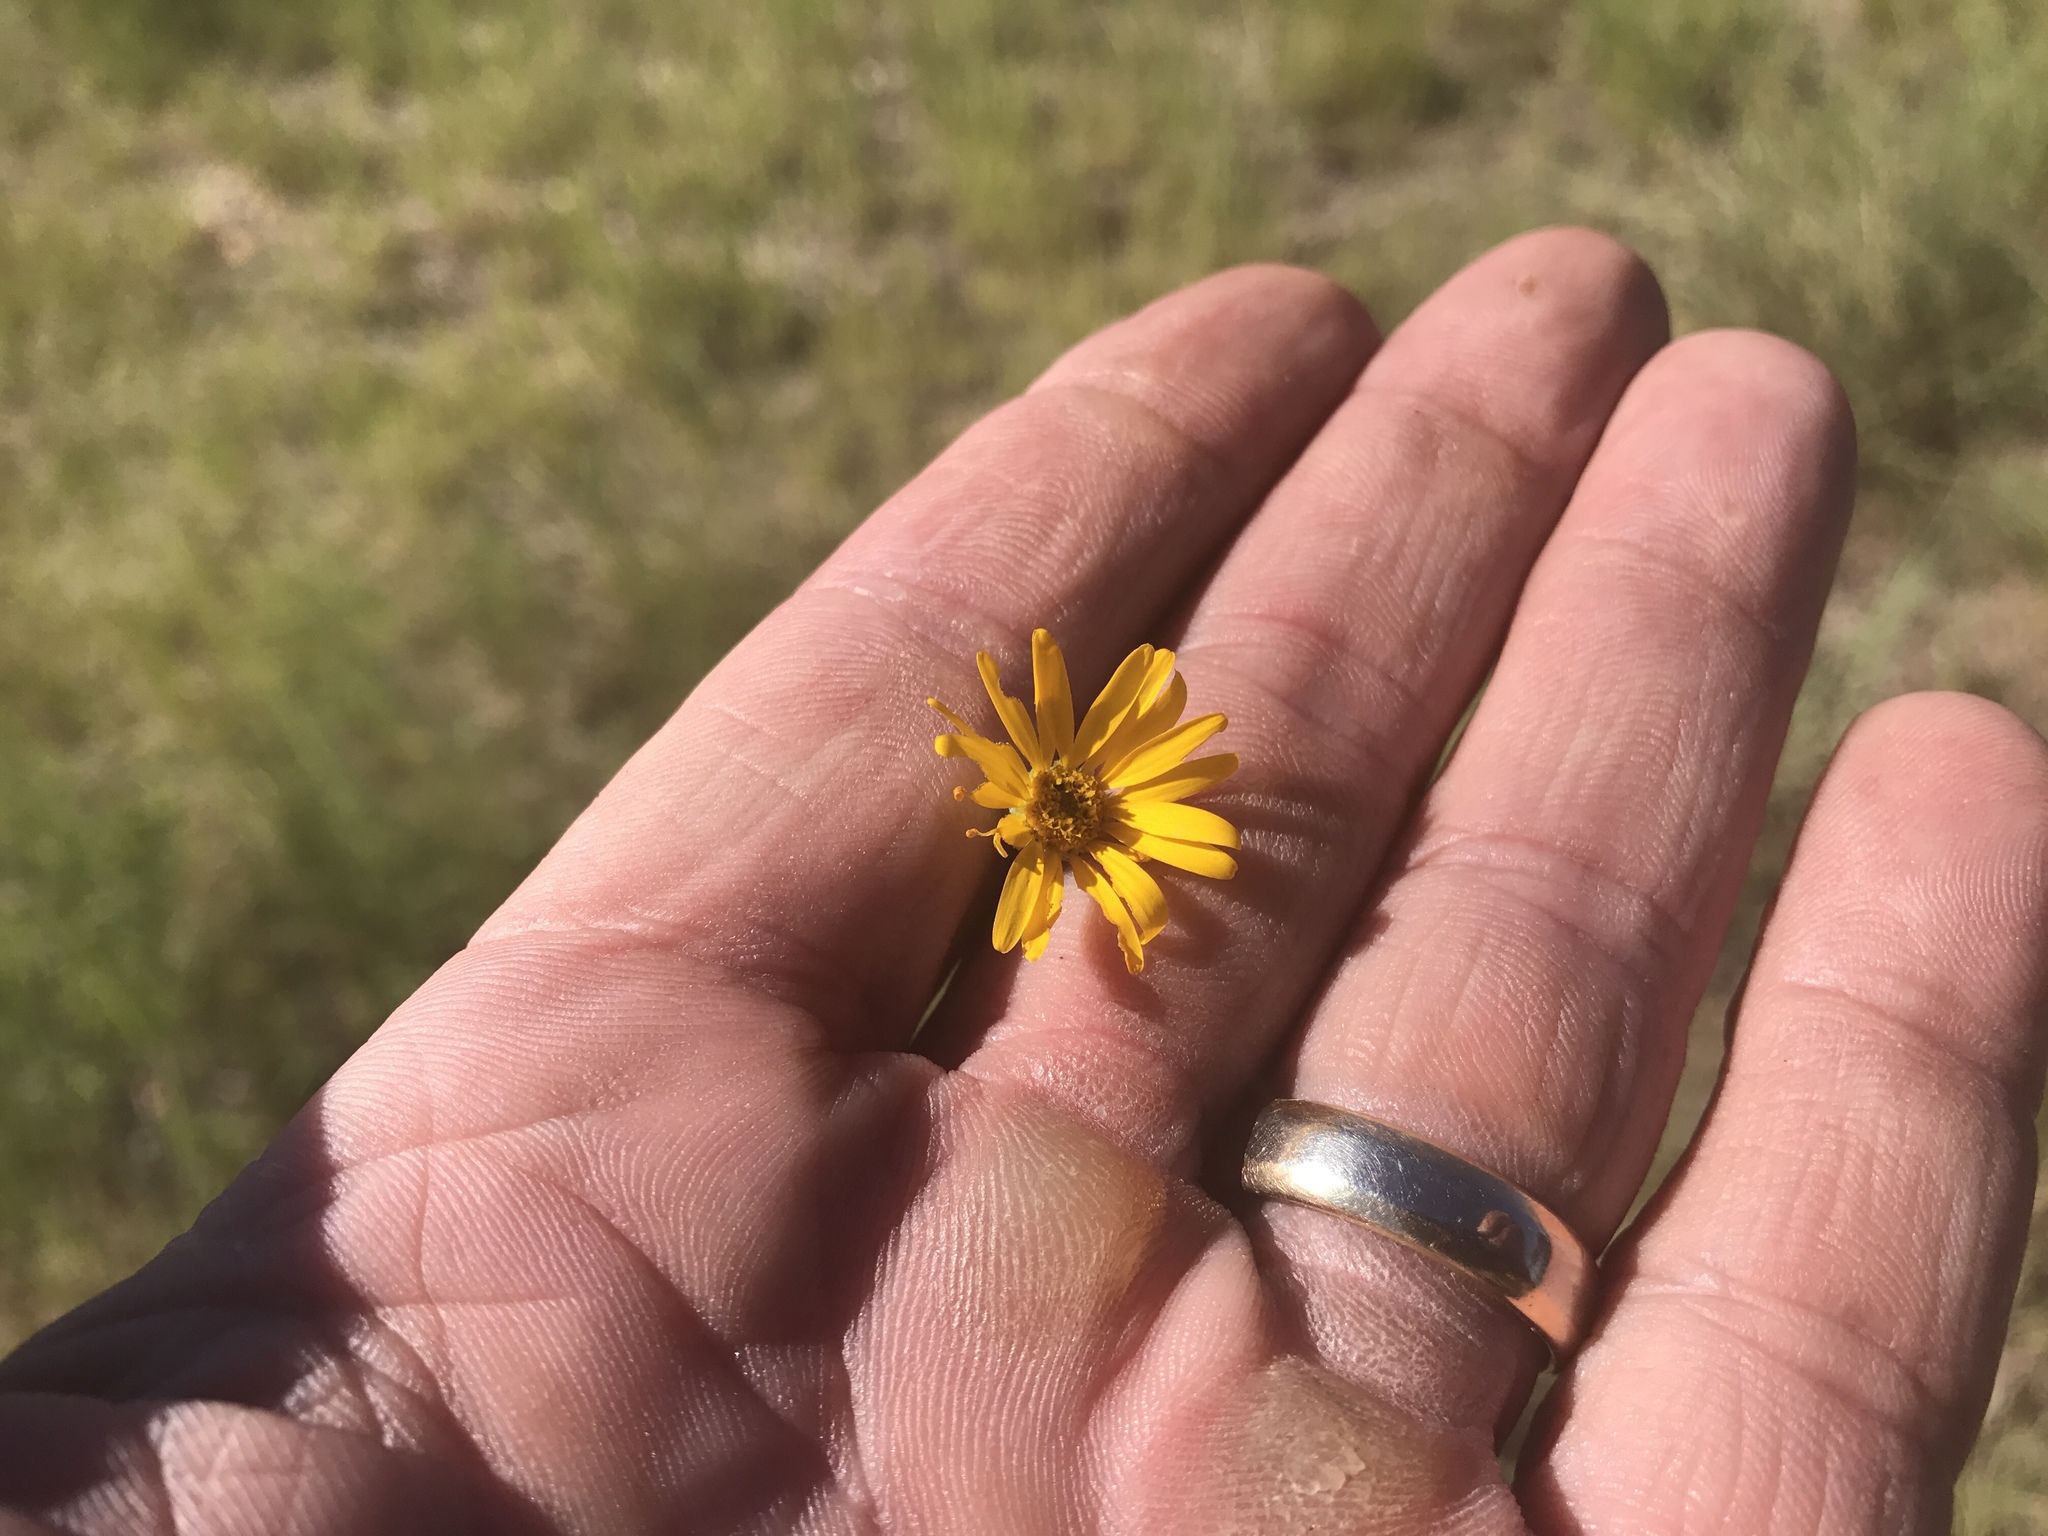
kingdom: Plantae
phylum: Tracheophyta
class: Magnoliopsida
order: Asterales
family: Asteraceae
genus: Xanthisma
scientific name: Xanthisma gracile
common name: Slender goldenweed
